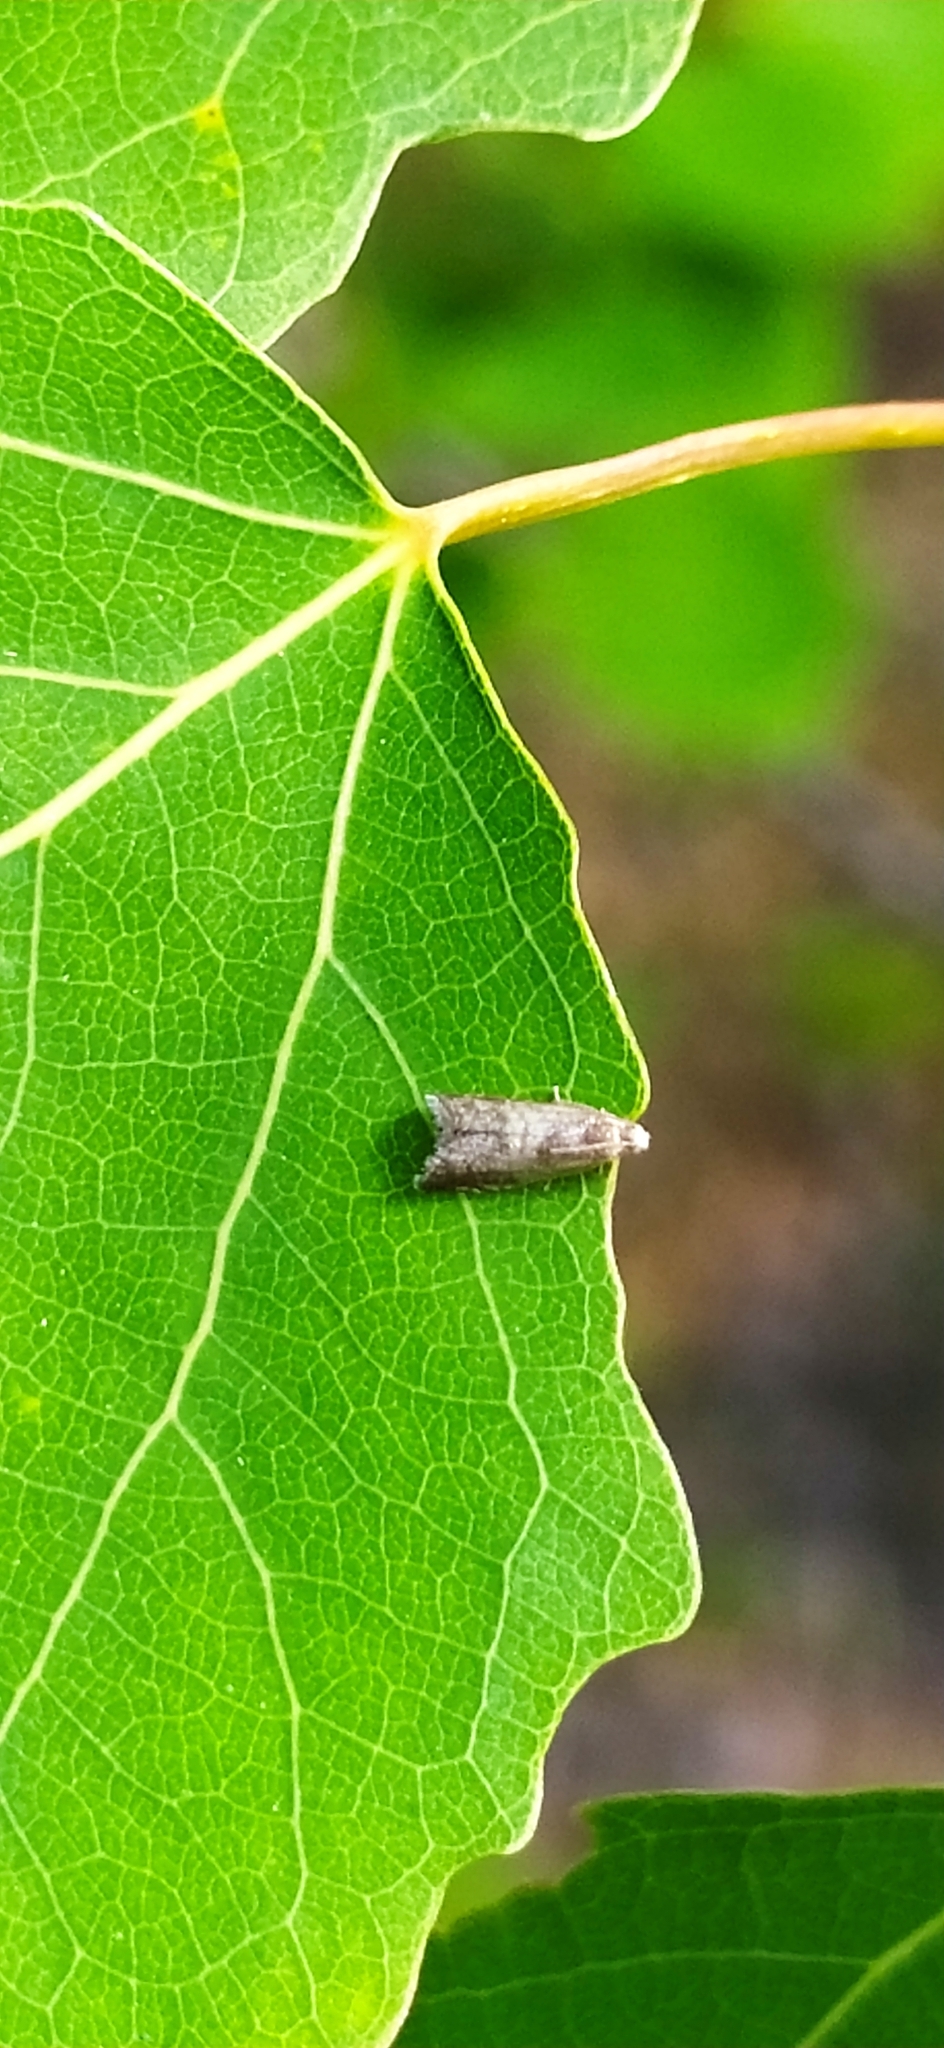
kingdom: Animalia
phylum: Arthropoda
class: Insecta
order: Lepidoptera
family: Tortricidae
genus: Strophedra
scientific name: Strophedra nitidana
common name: Little oak piercer
